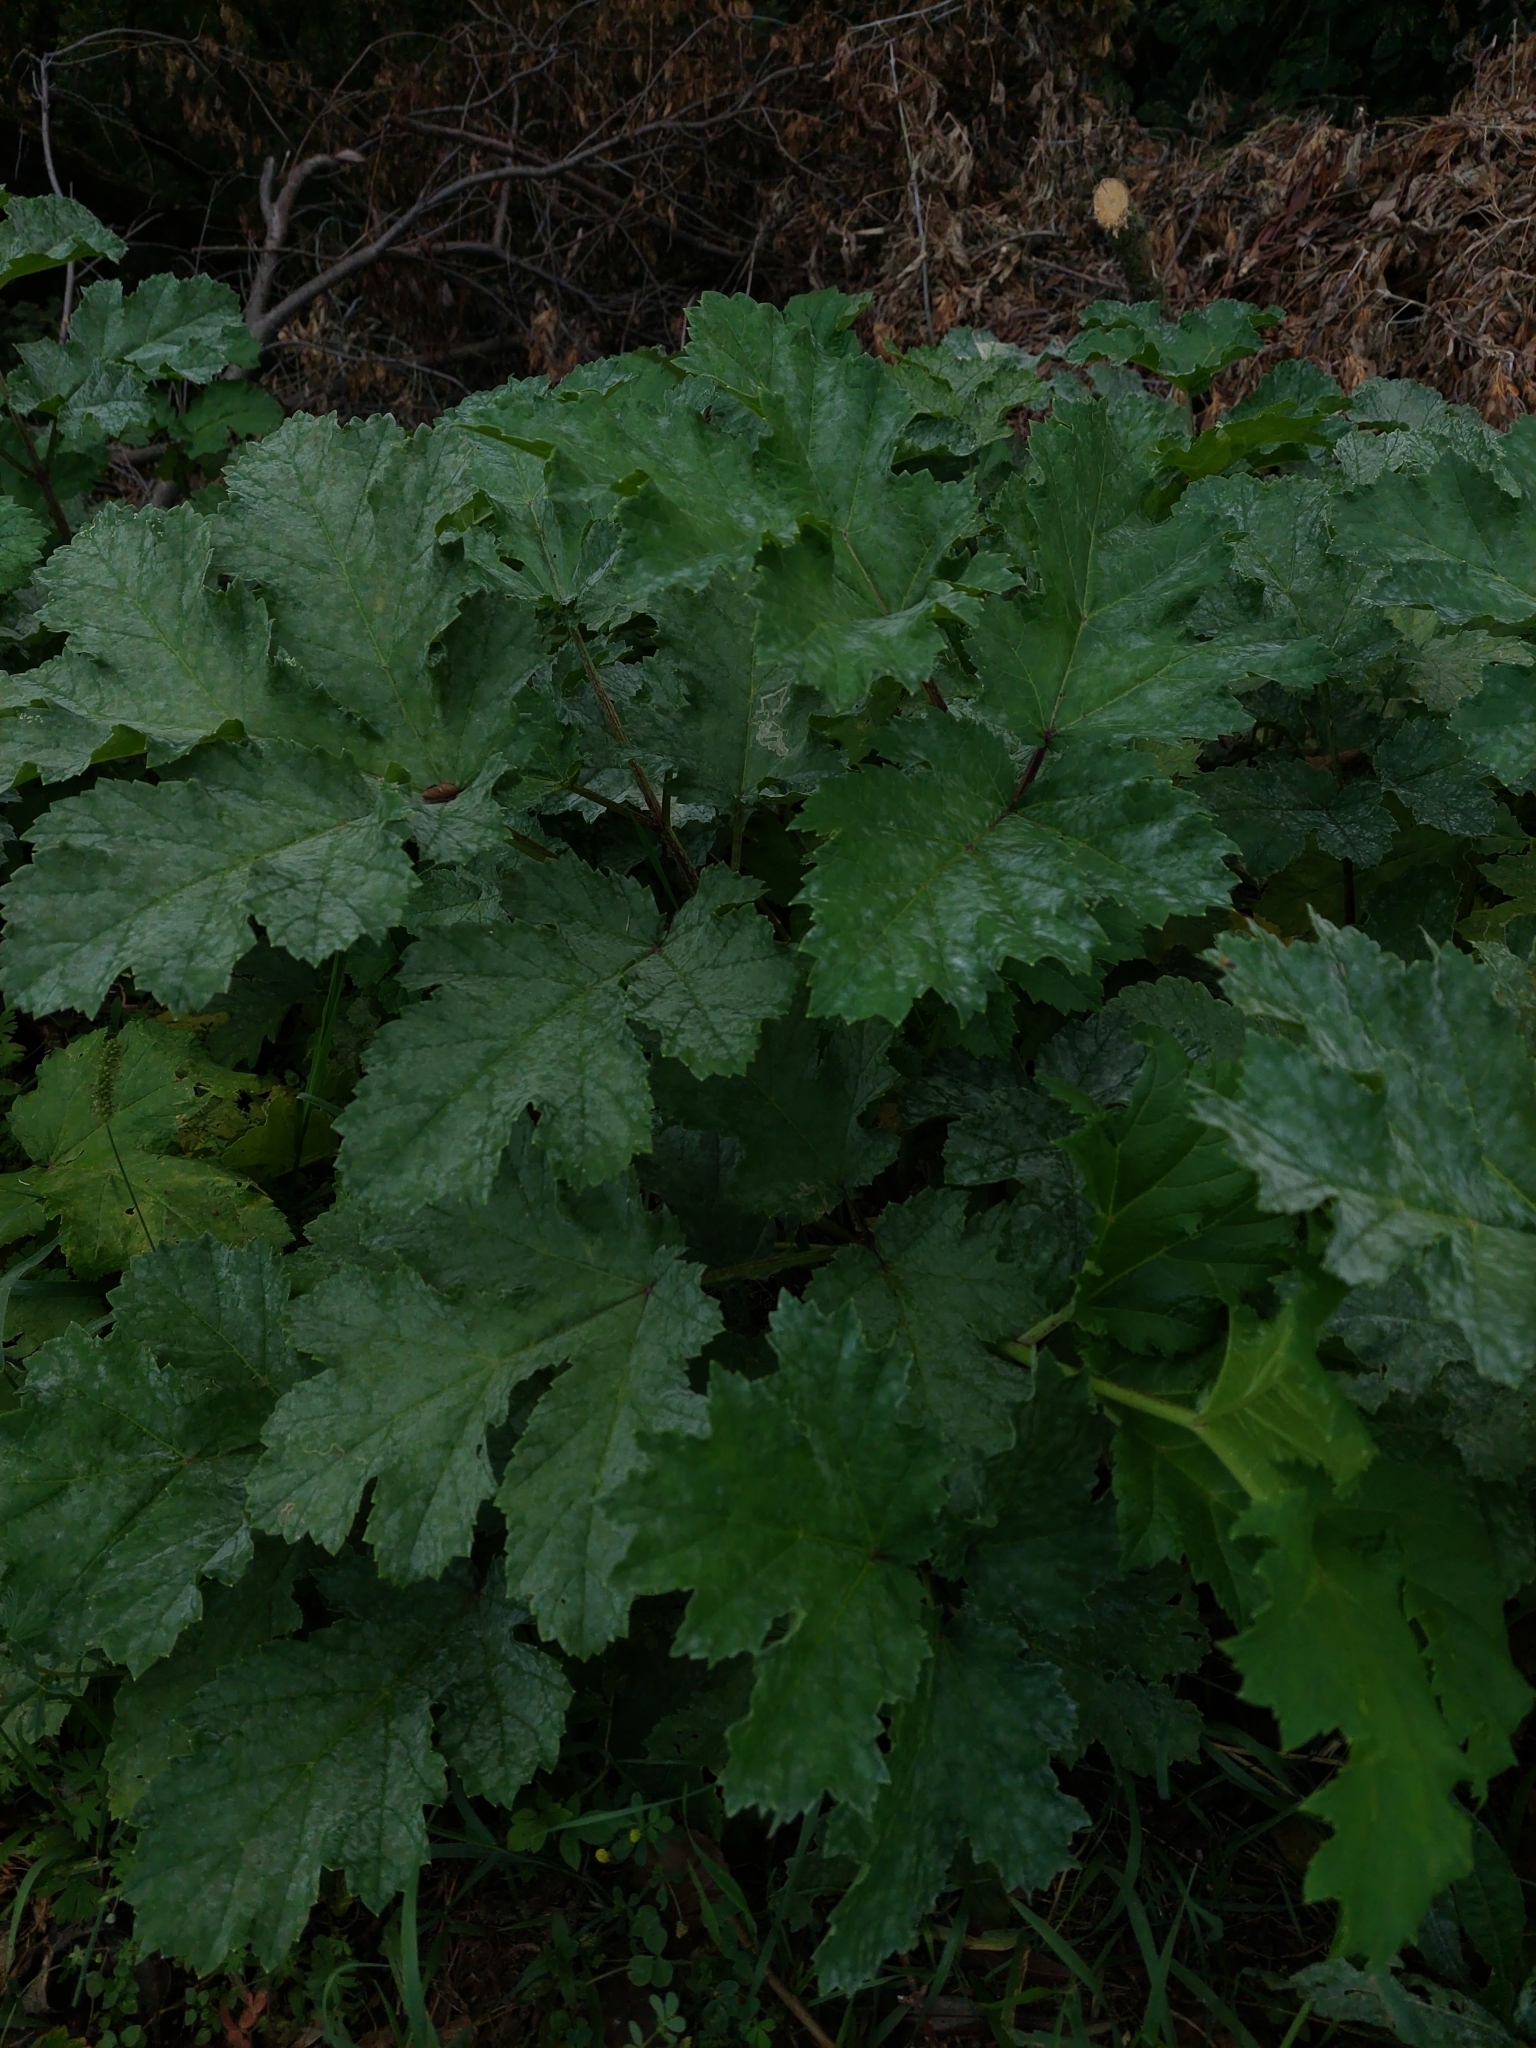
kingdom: Plantae
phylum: Tracheophyta
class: Magnoliopsida
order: Apiales
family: Apiaceae
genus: Heracleum
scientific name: Heracleum sosnowskyi
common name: Sosnowsky's hogweed
